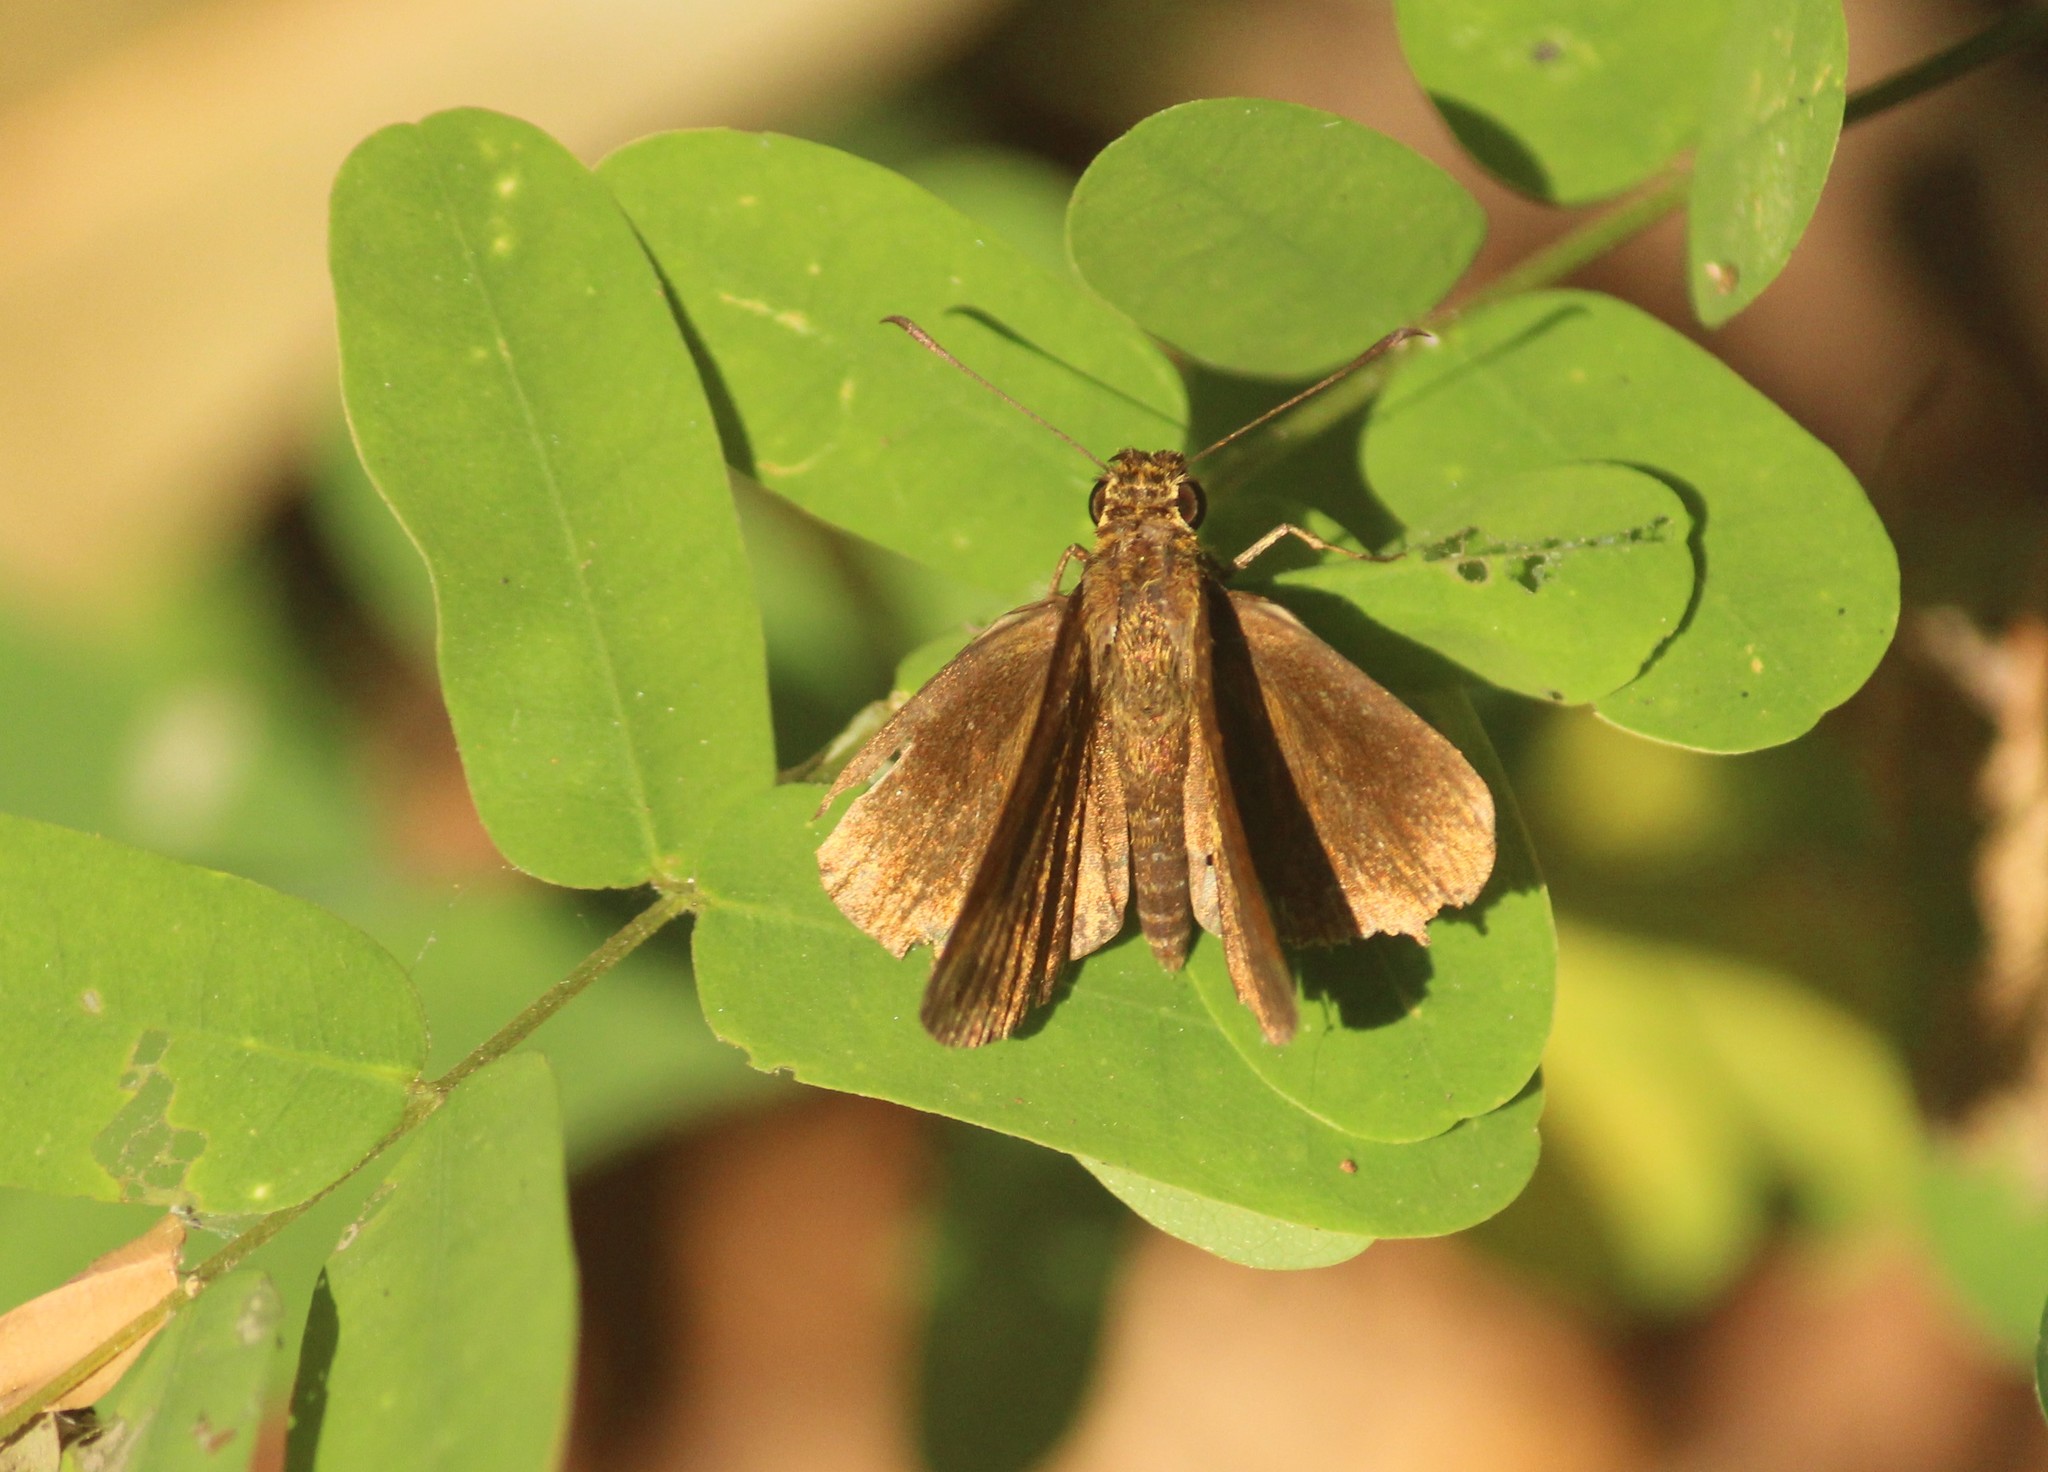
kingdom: Animalia
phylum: Arthropoda
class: Insecta
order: Lepidoptera
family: Hesperiidae
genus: Iambrix
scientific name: Iambrix salsala
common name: Chestnut bob
